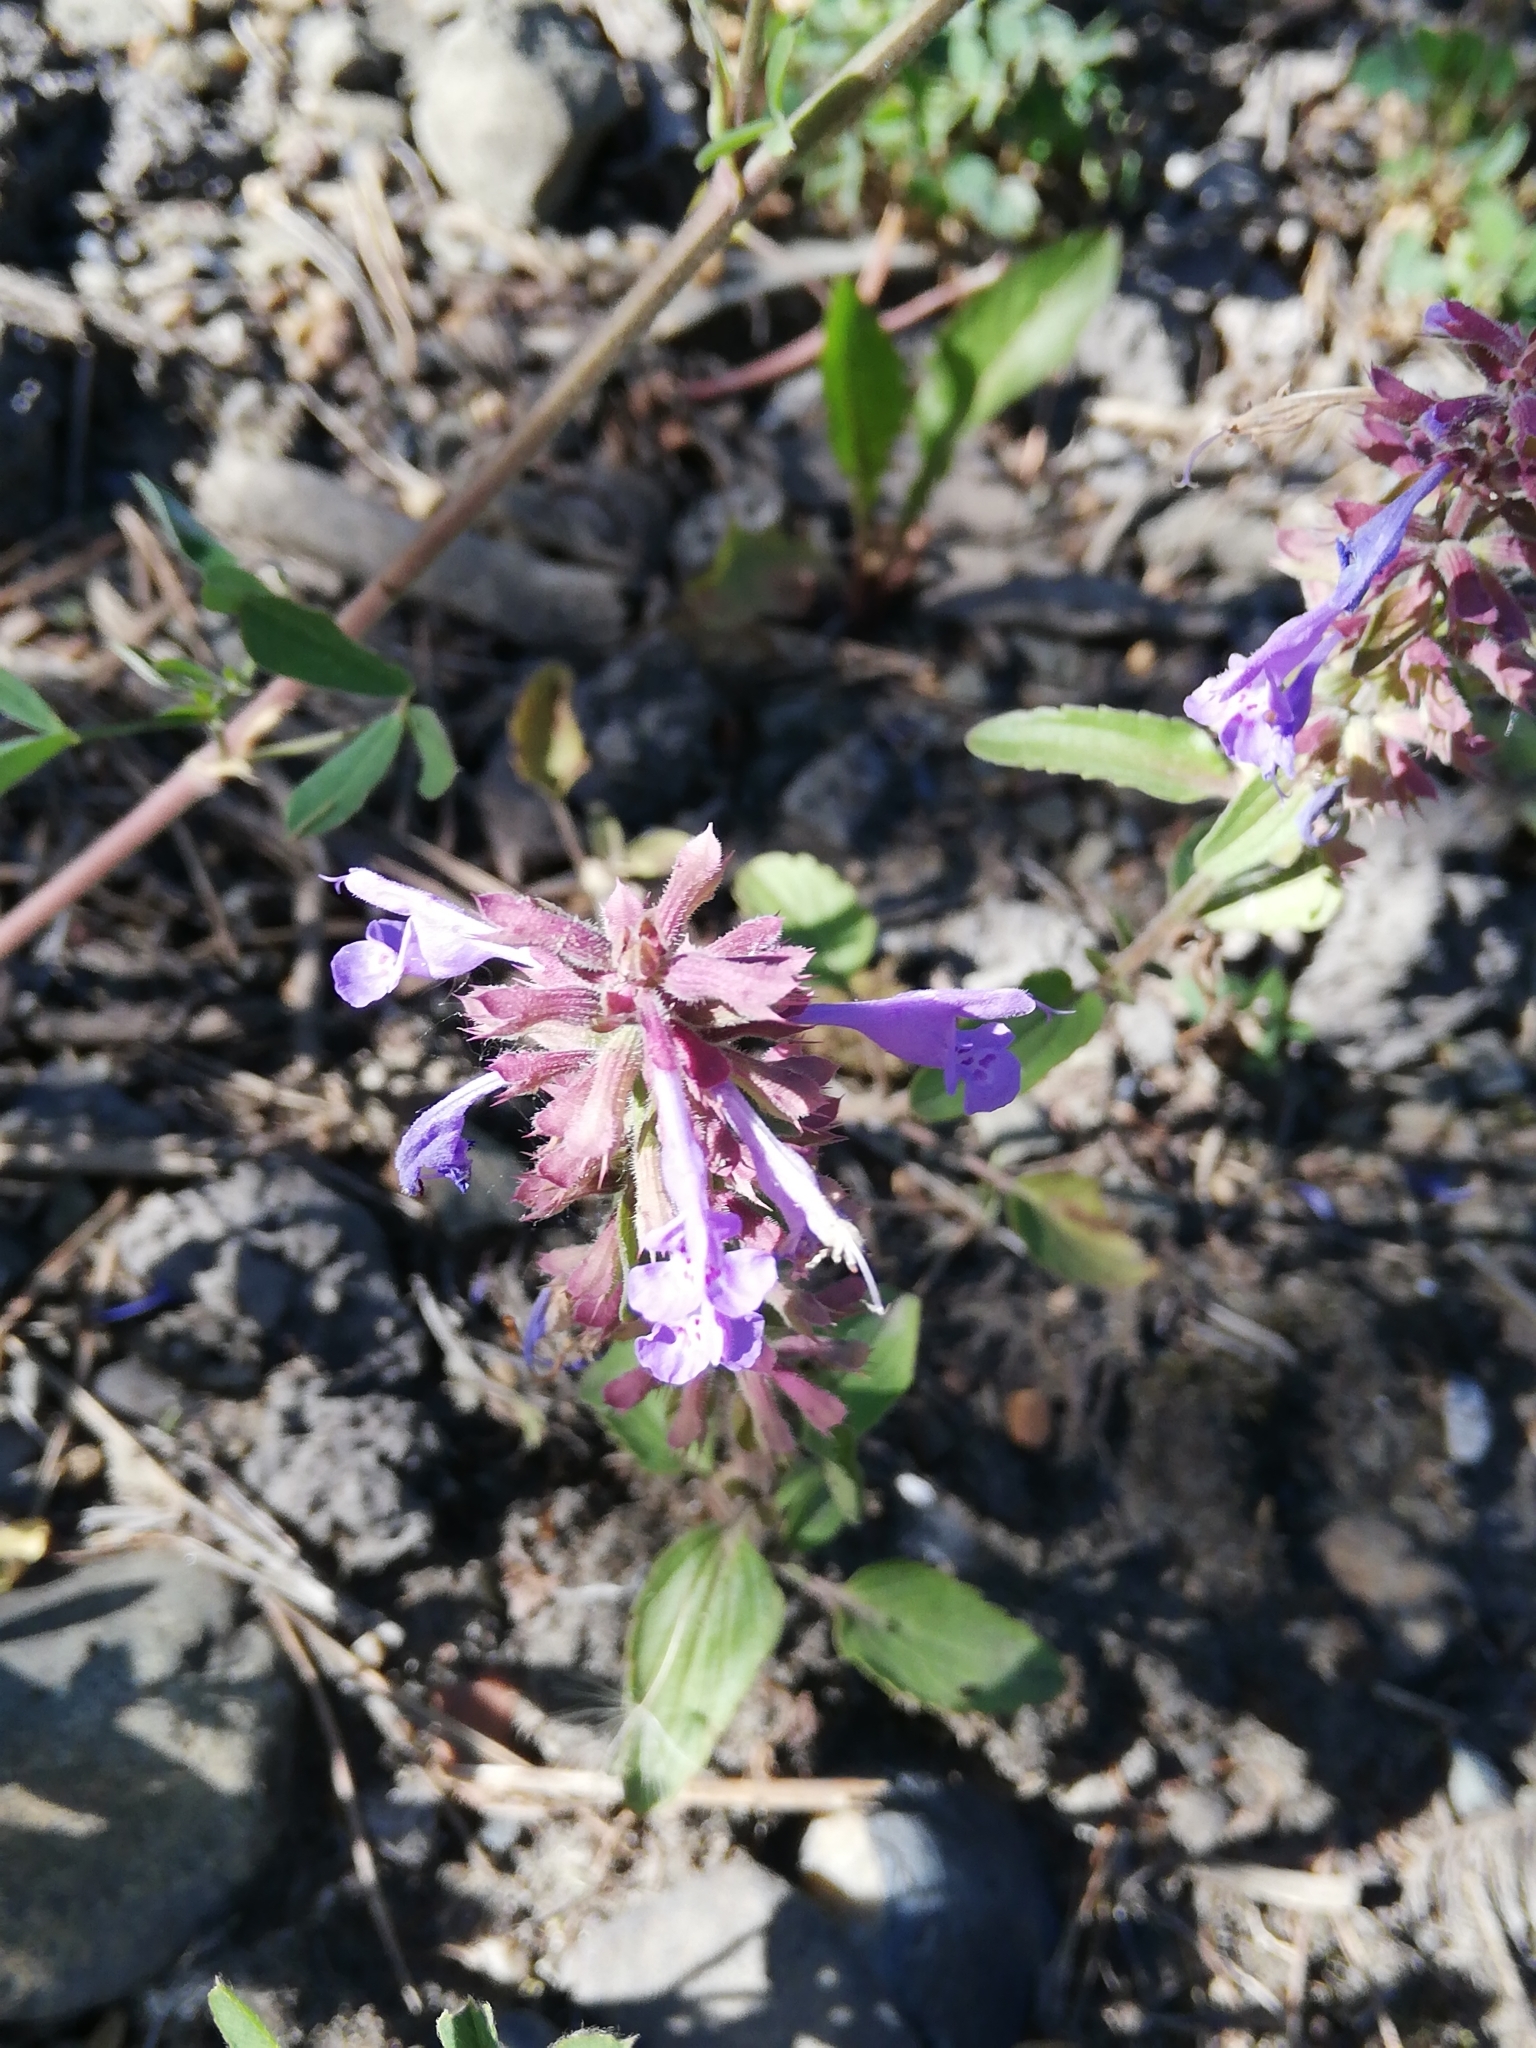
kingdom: Plantae
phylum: Tracheophyta
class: Magnoliopsida
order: Lamiales
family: Lamiaceae
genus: Dracocephalum
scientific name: Dracocephalum nutans
